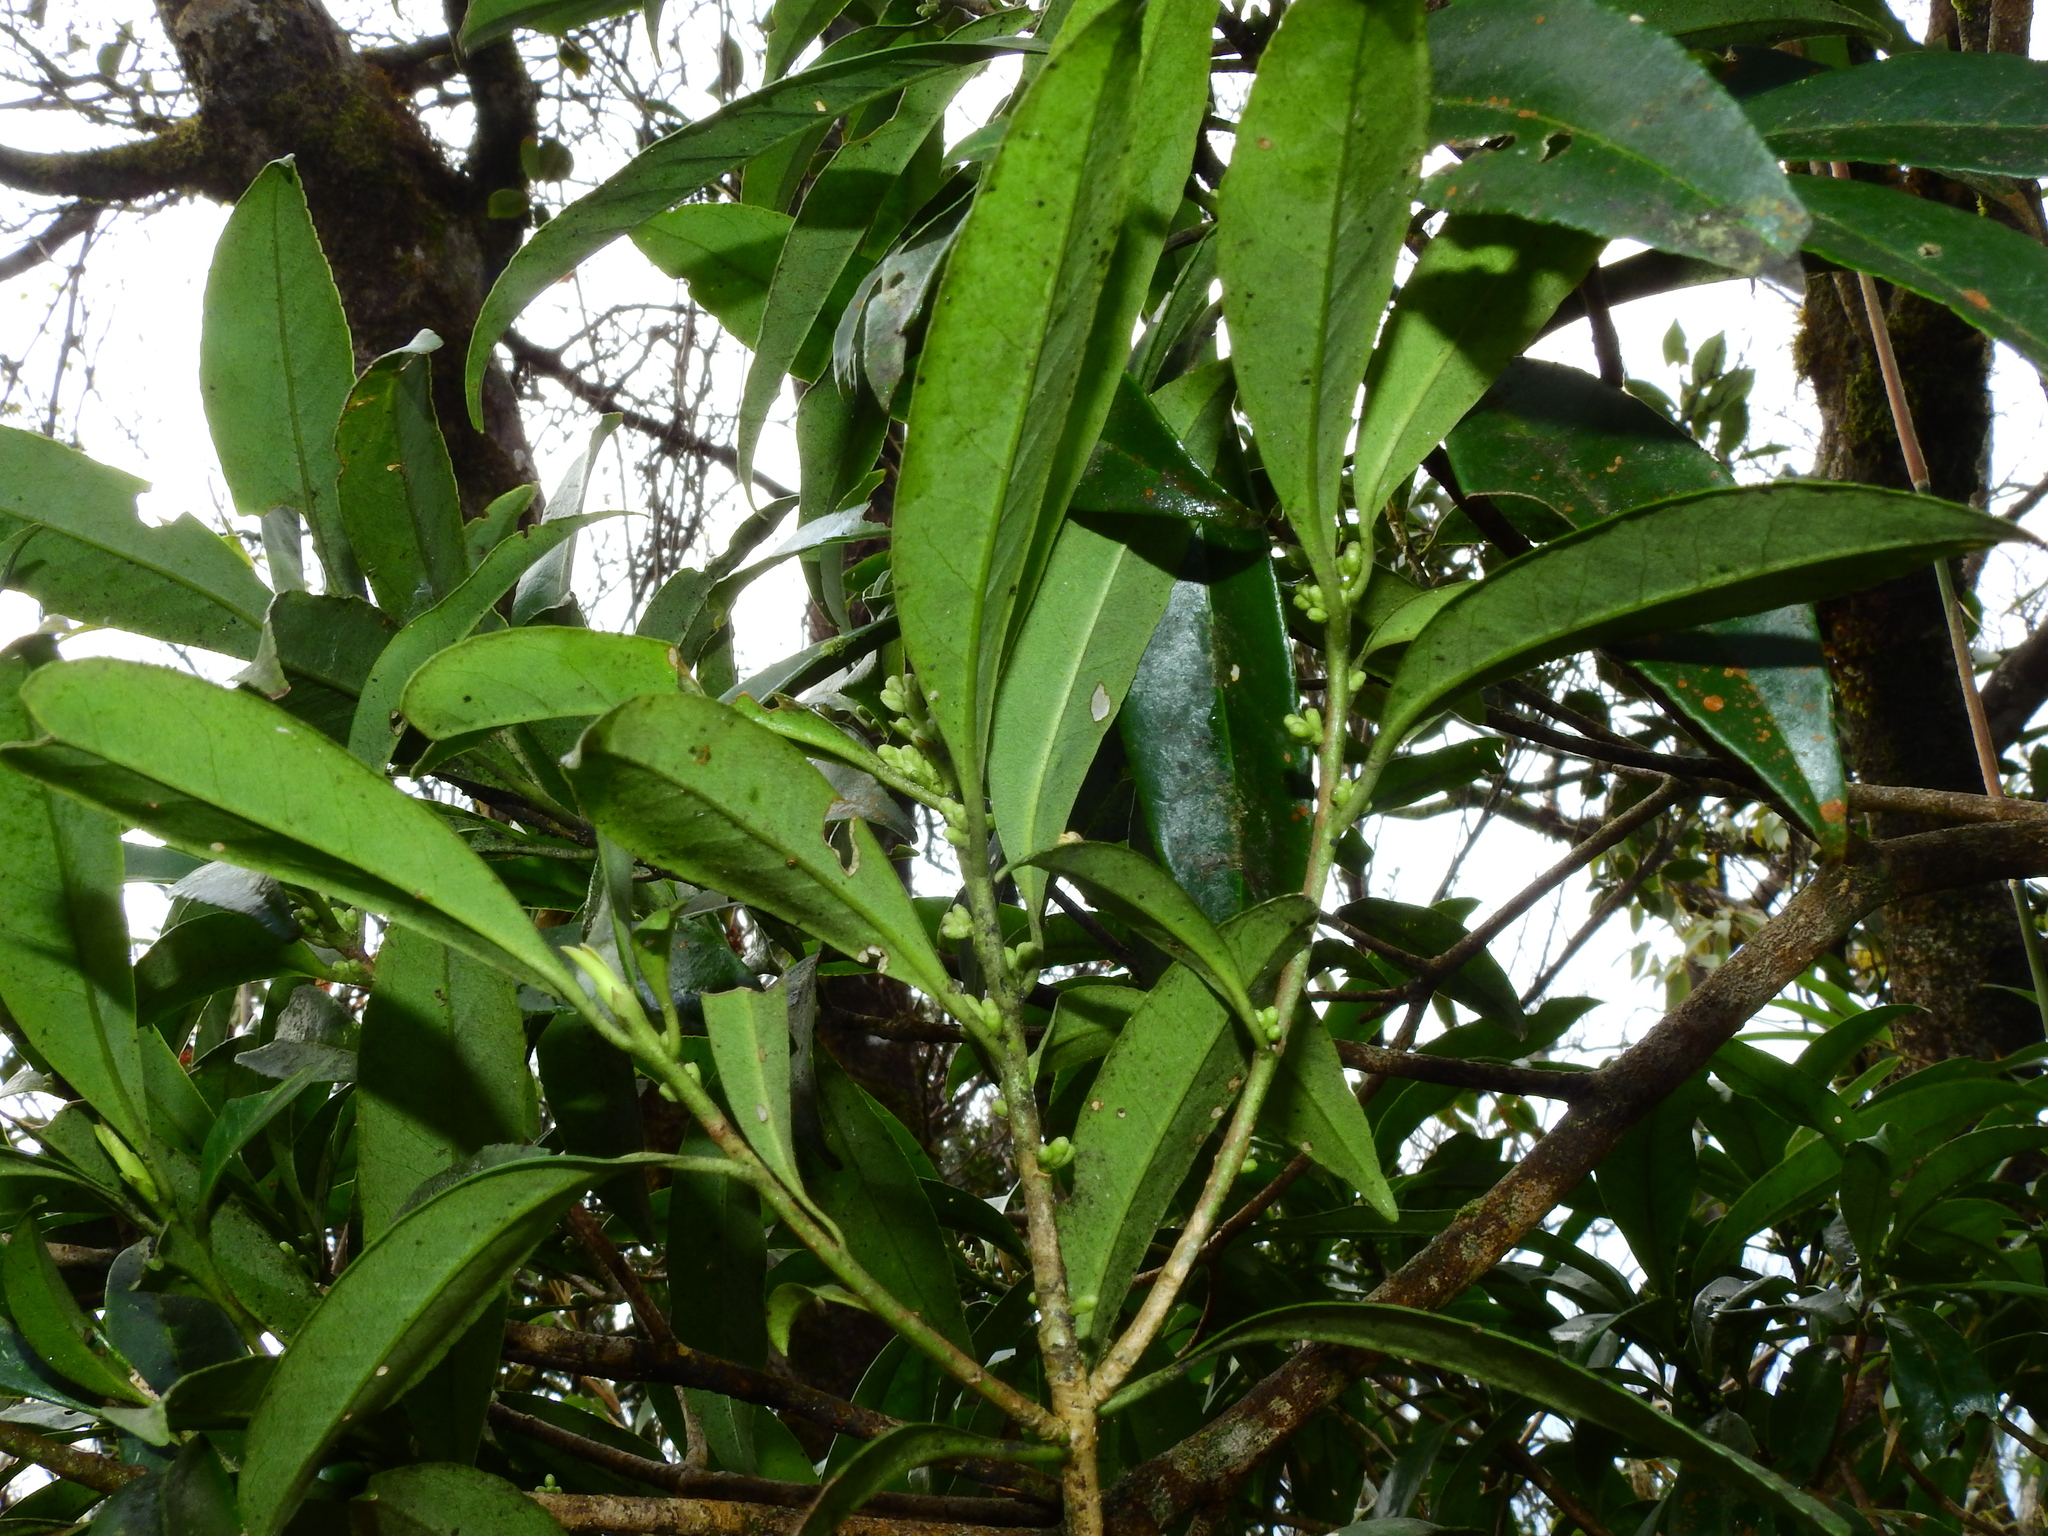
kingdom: Plantae
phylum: Tracheophyta
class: Magnoliopsida
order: Ericales
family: Symplocaceae
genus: Symplocos
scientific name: Symplocos wikstroemiifolia
